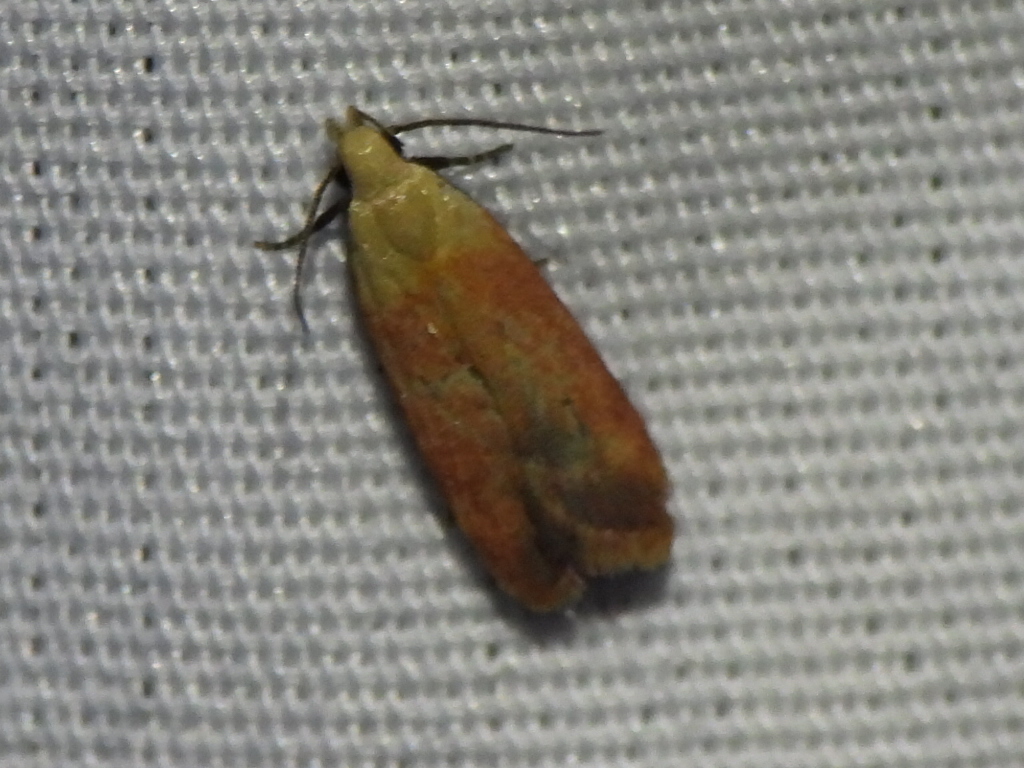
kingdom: Animalia
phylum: Arthropoda
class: Insecta
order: Lepidoptera
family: Gelechiidae
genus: Anacampsis
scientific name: Anacampsis fullonella
